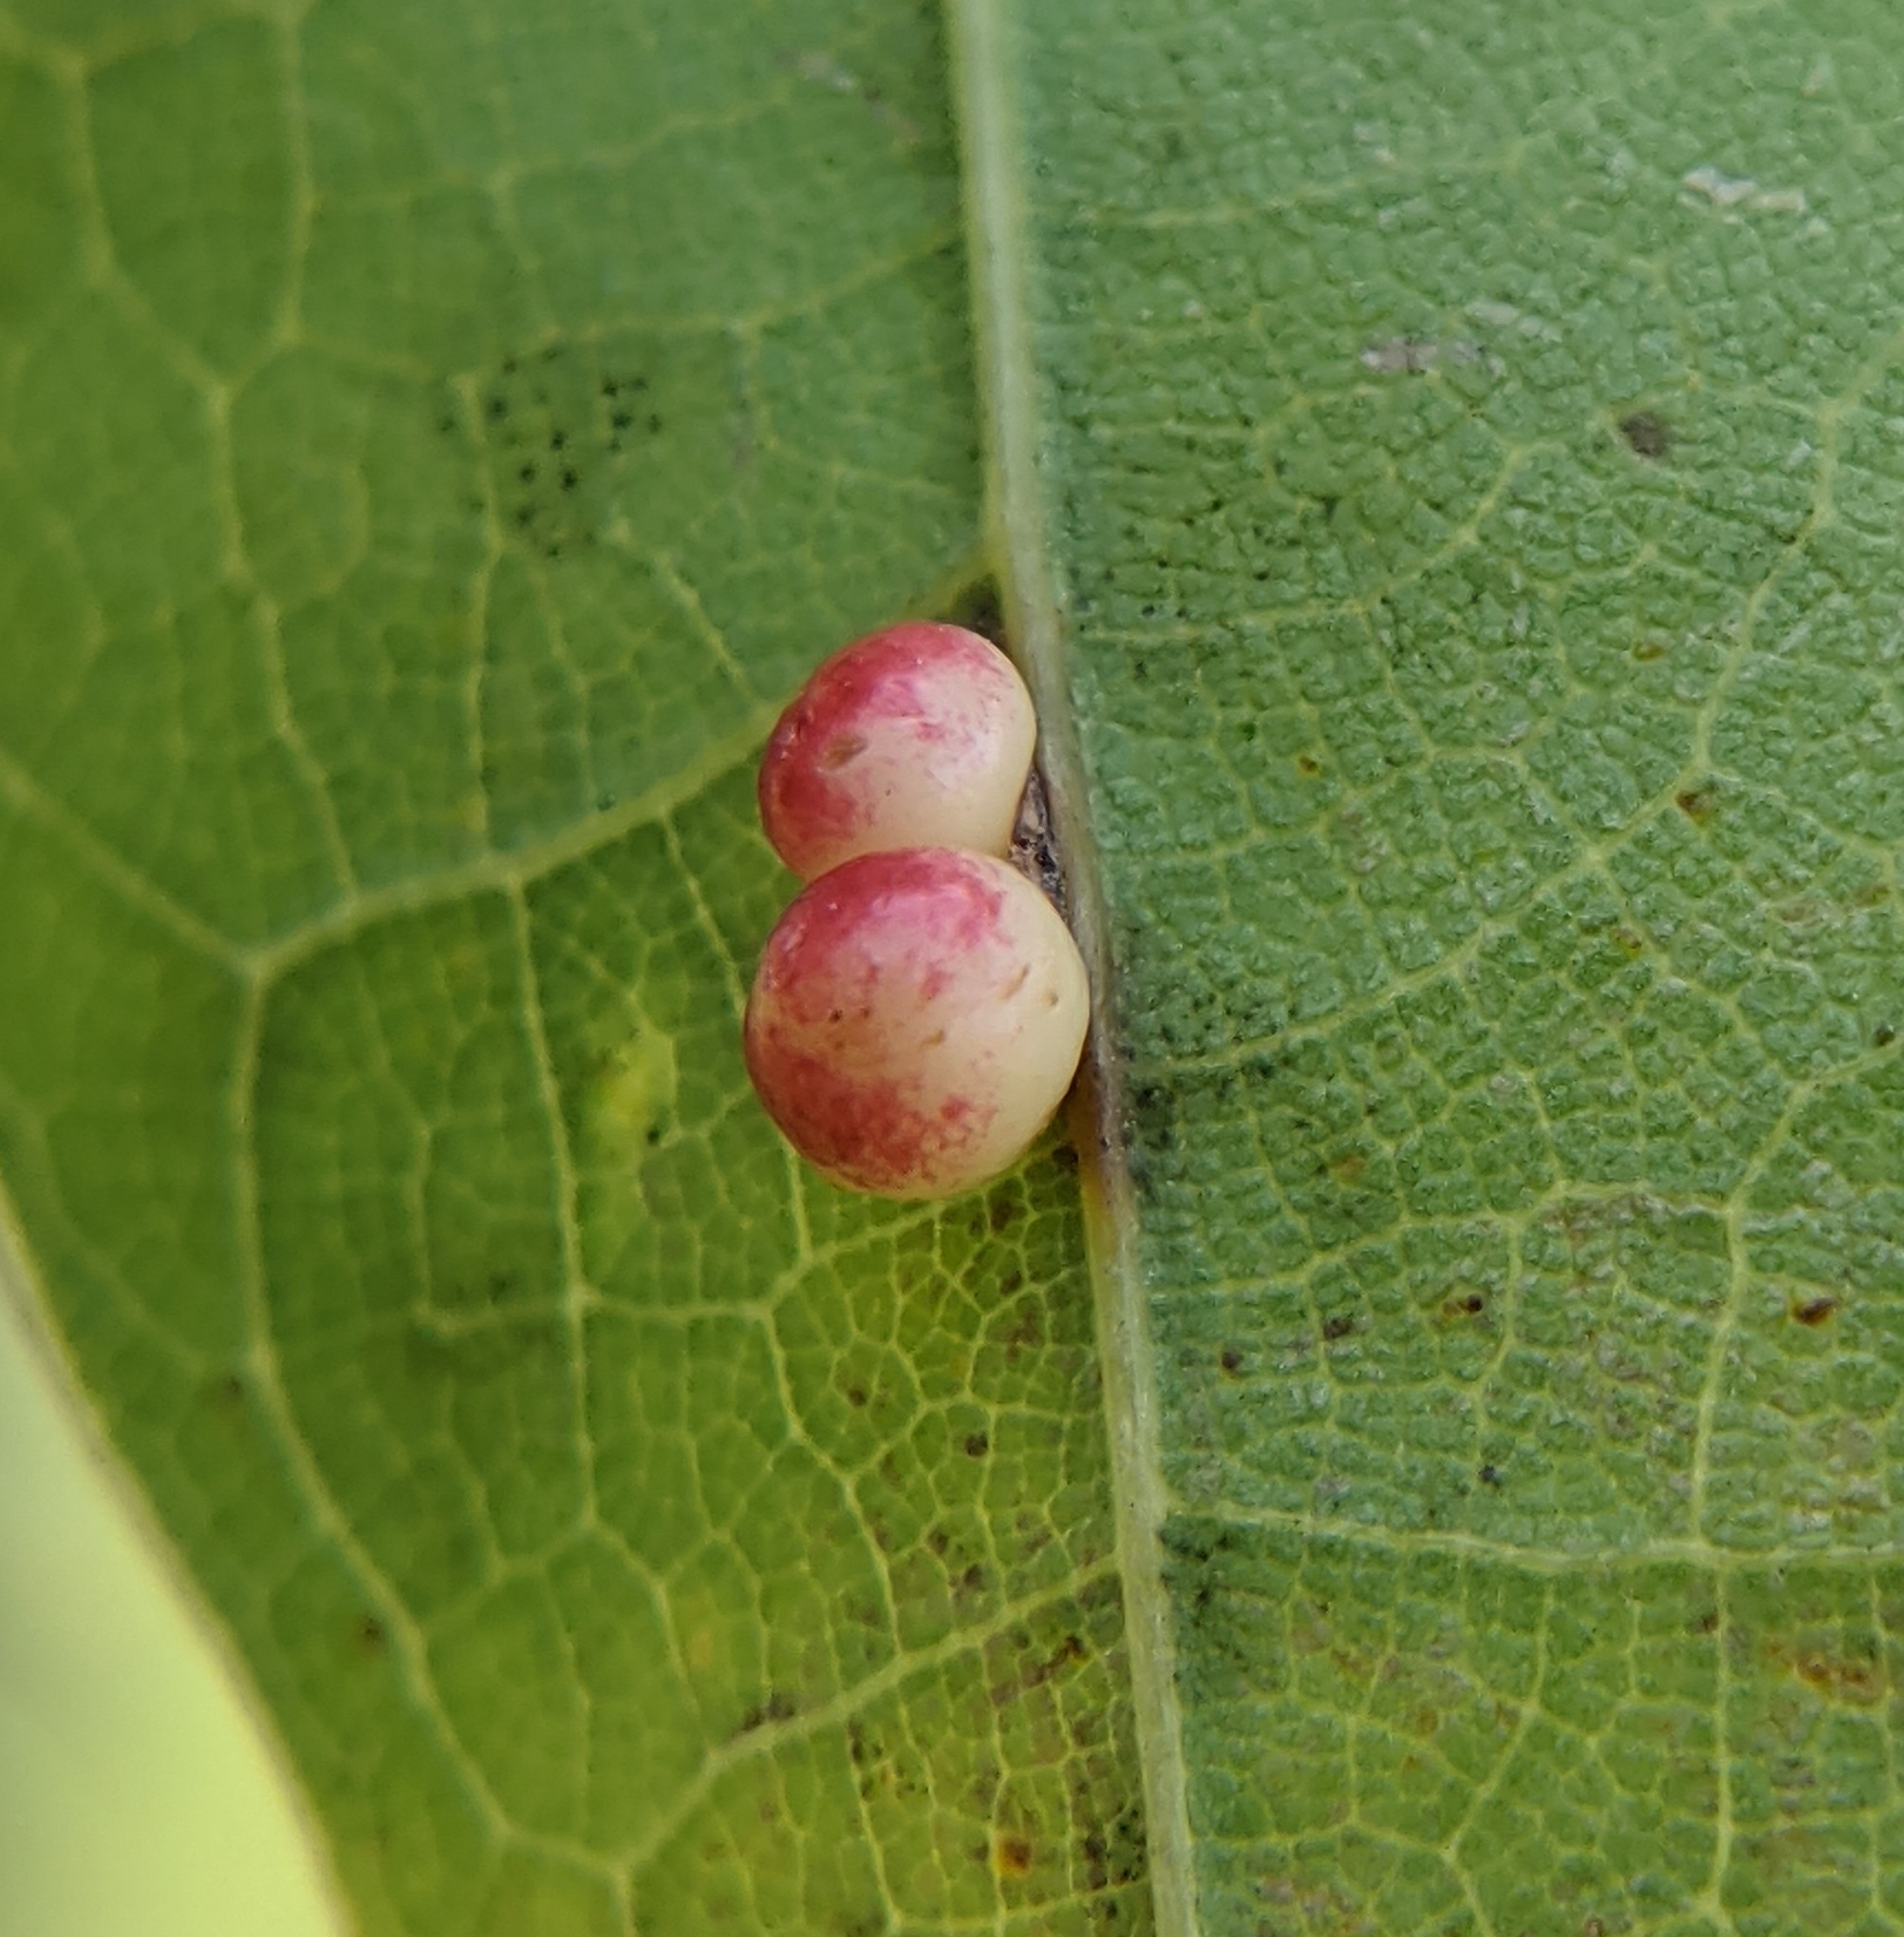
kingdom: Animalia
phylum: Arthropoda
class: Insecta
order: Hymenoptera
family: Cynipidae
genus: Zopheroteras
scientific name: Zopheroteras
